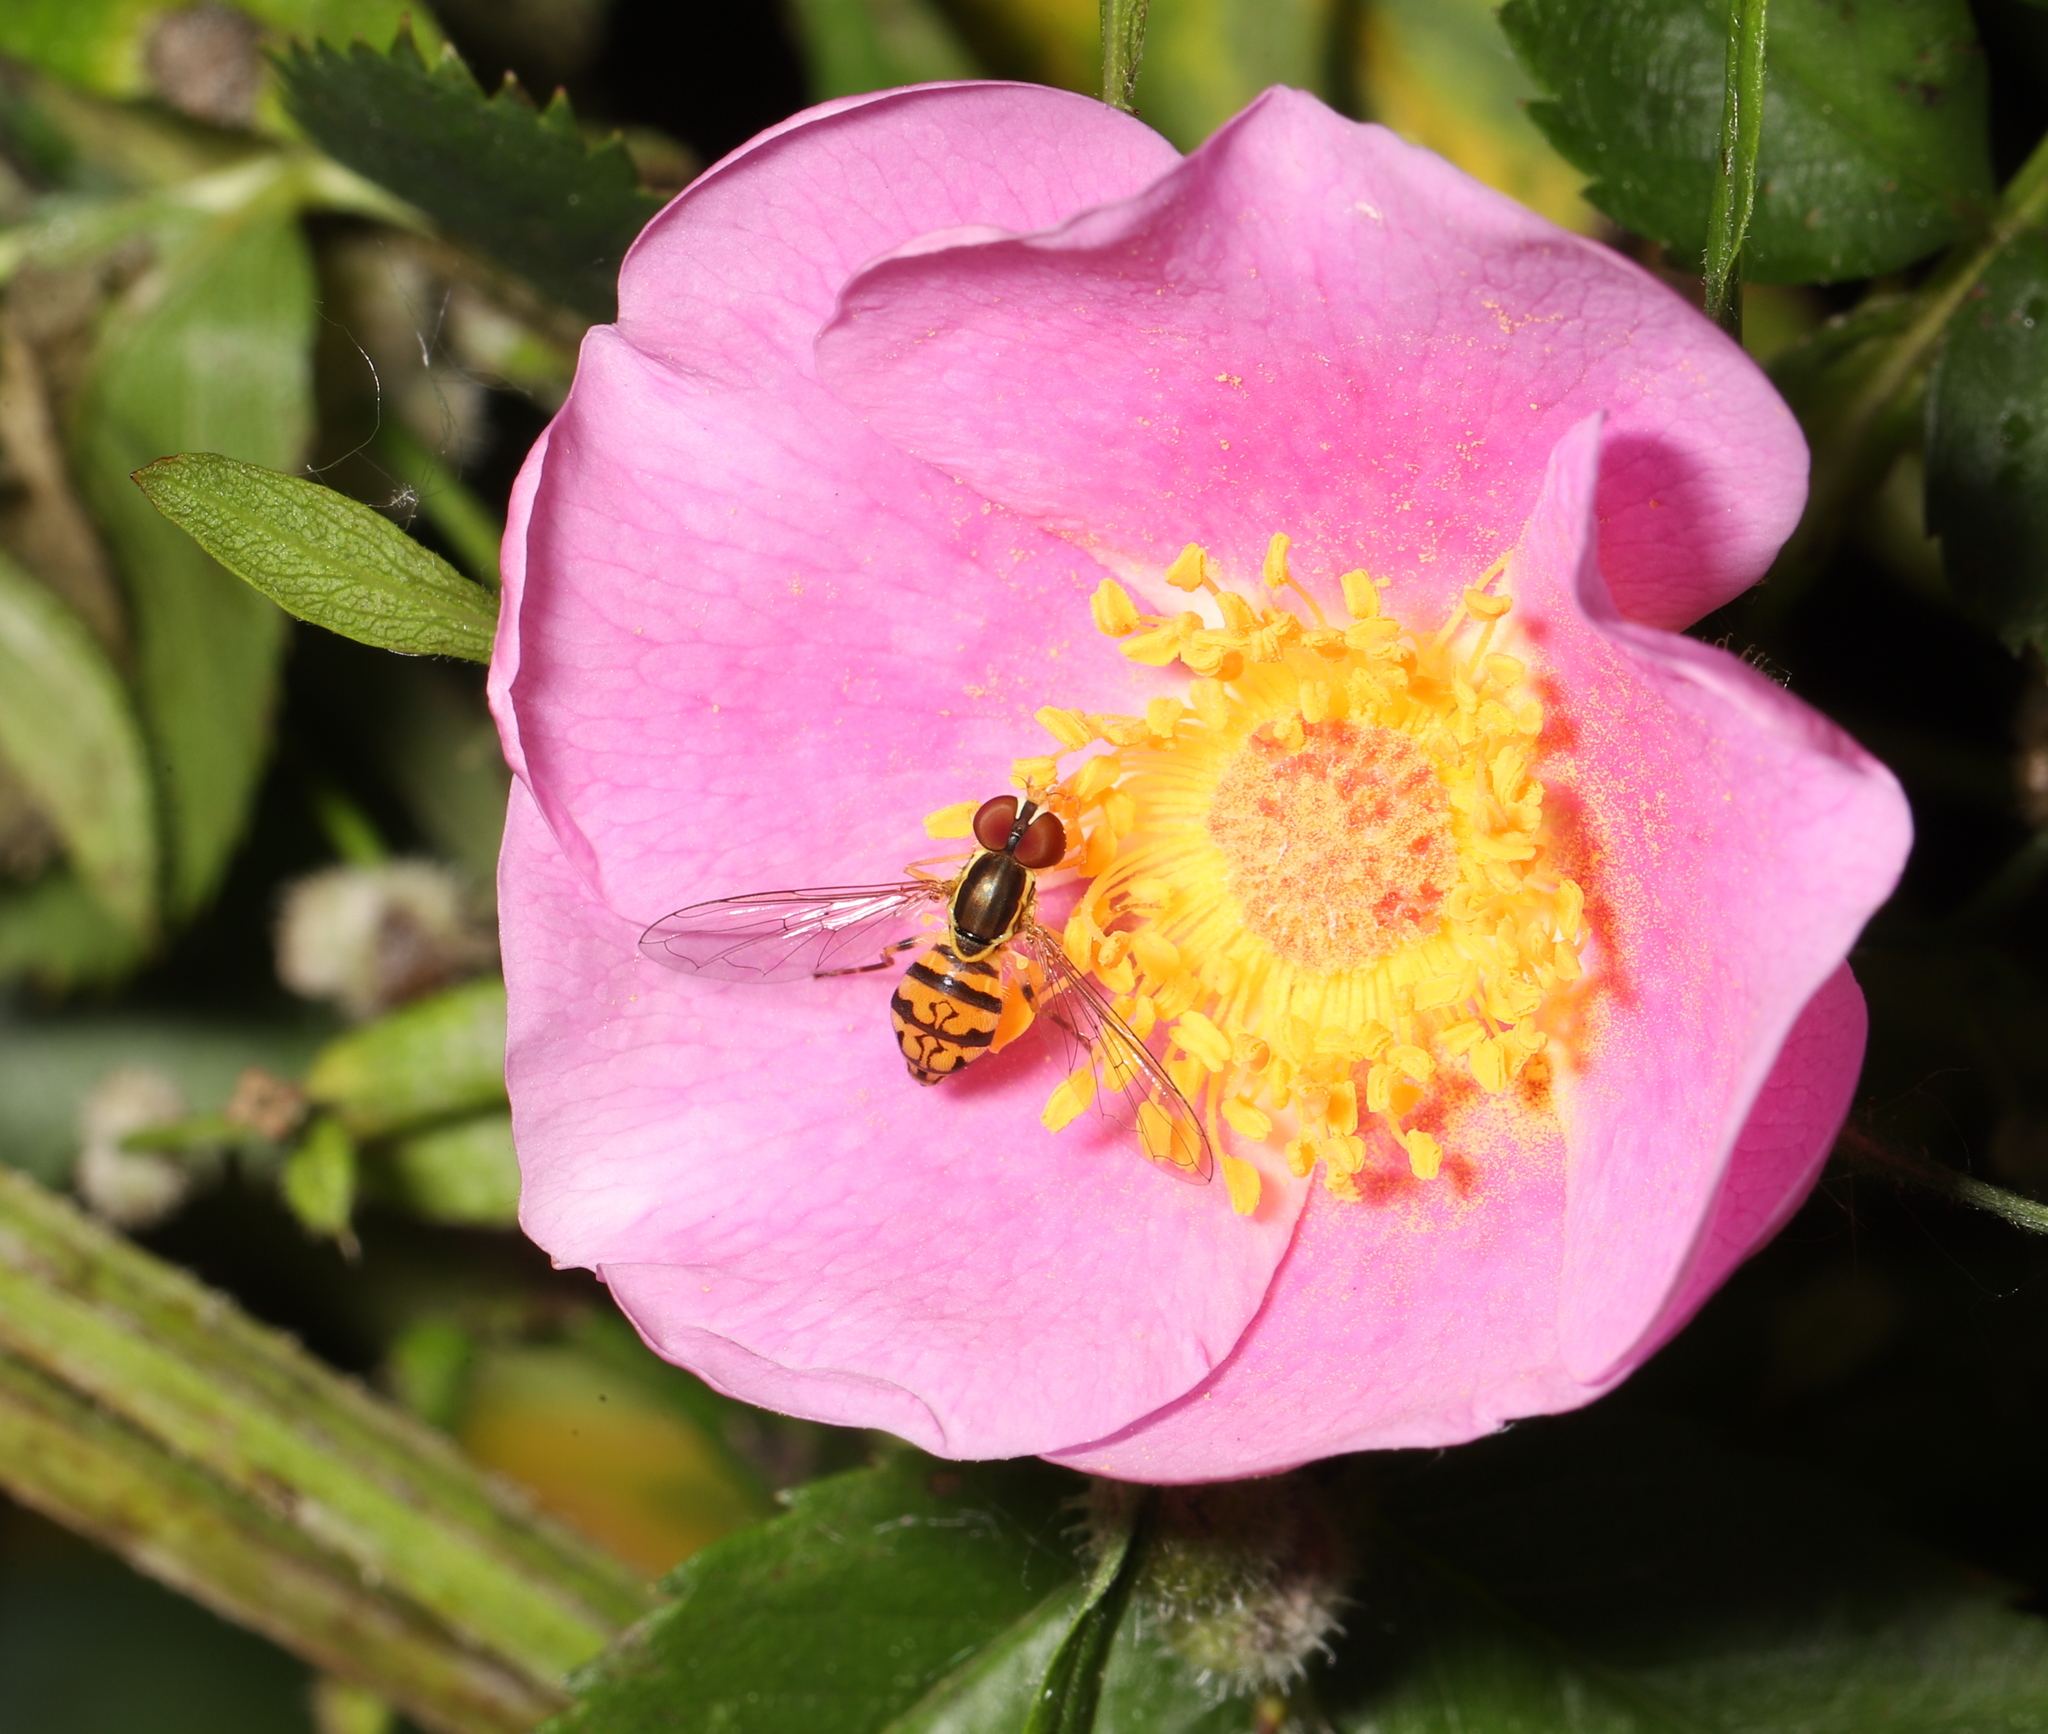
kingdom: Animalia
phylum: Arthropoda
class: Insecta
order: Diptera
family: Syrphidae
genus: Toxomerus
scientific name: Toxomerus geminatus
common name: Eastern calligrapher
